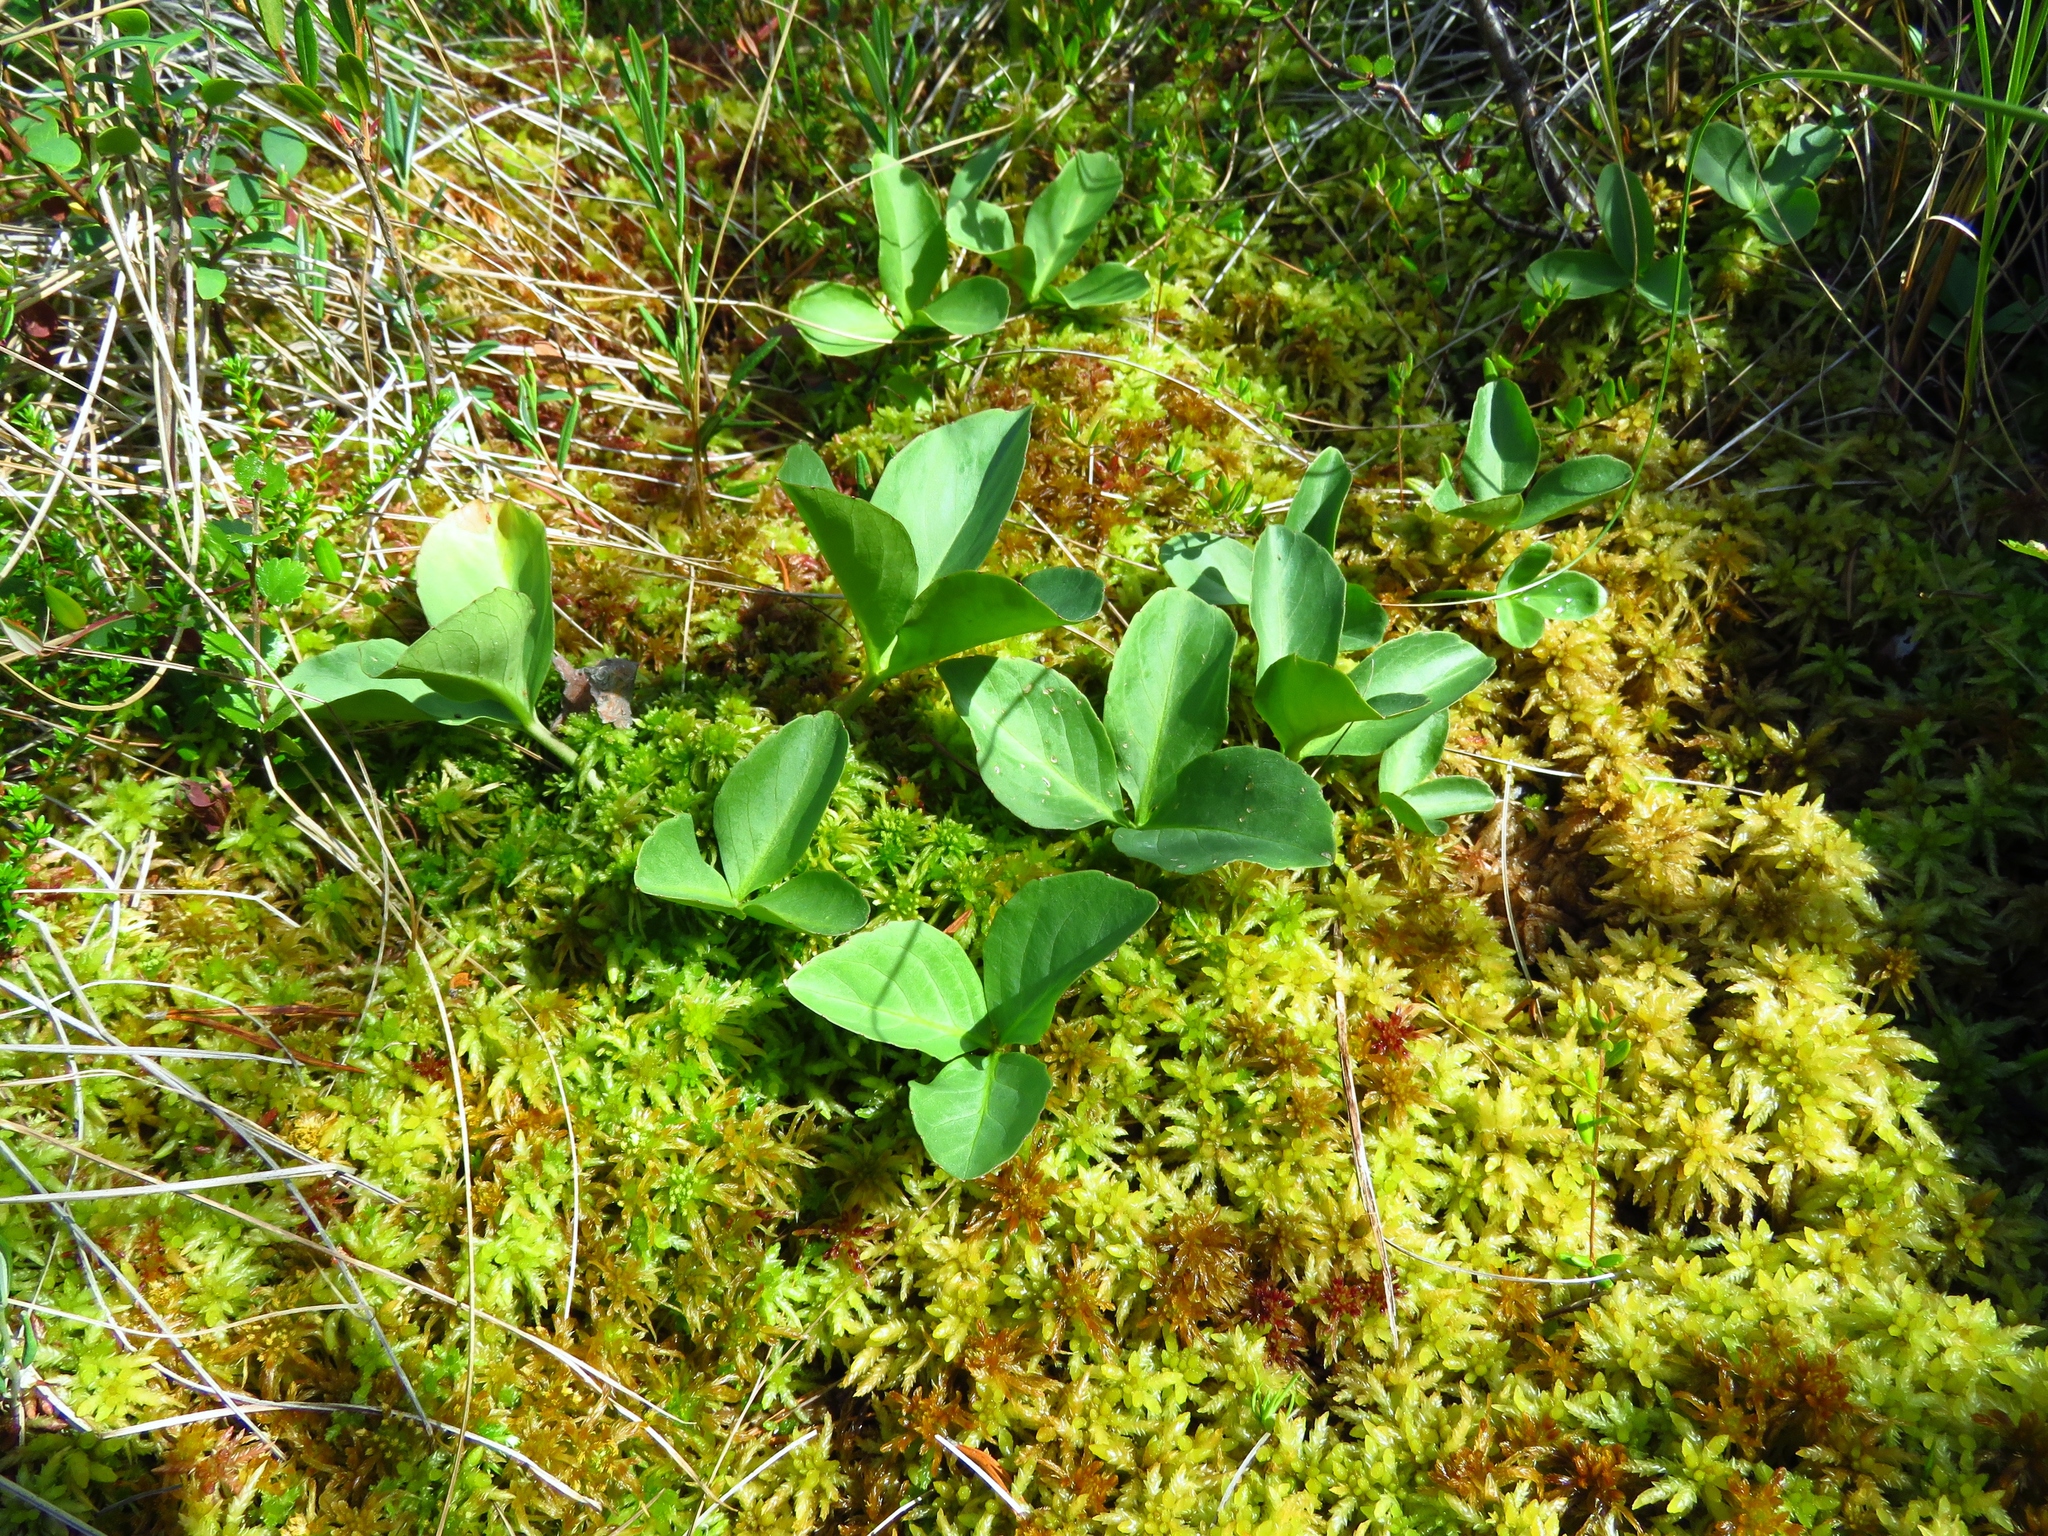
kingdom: Plantae
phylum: Tracheophyta
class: Magnoliopsida
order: Asterales
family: Menyanthaceae
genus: Menyanthes
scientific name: Menyanthes trifoliata
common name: Bogbean
